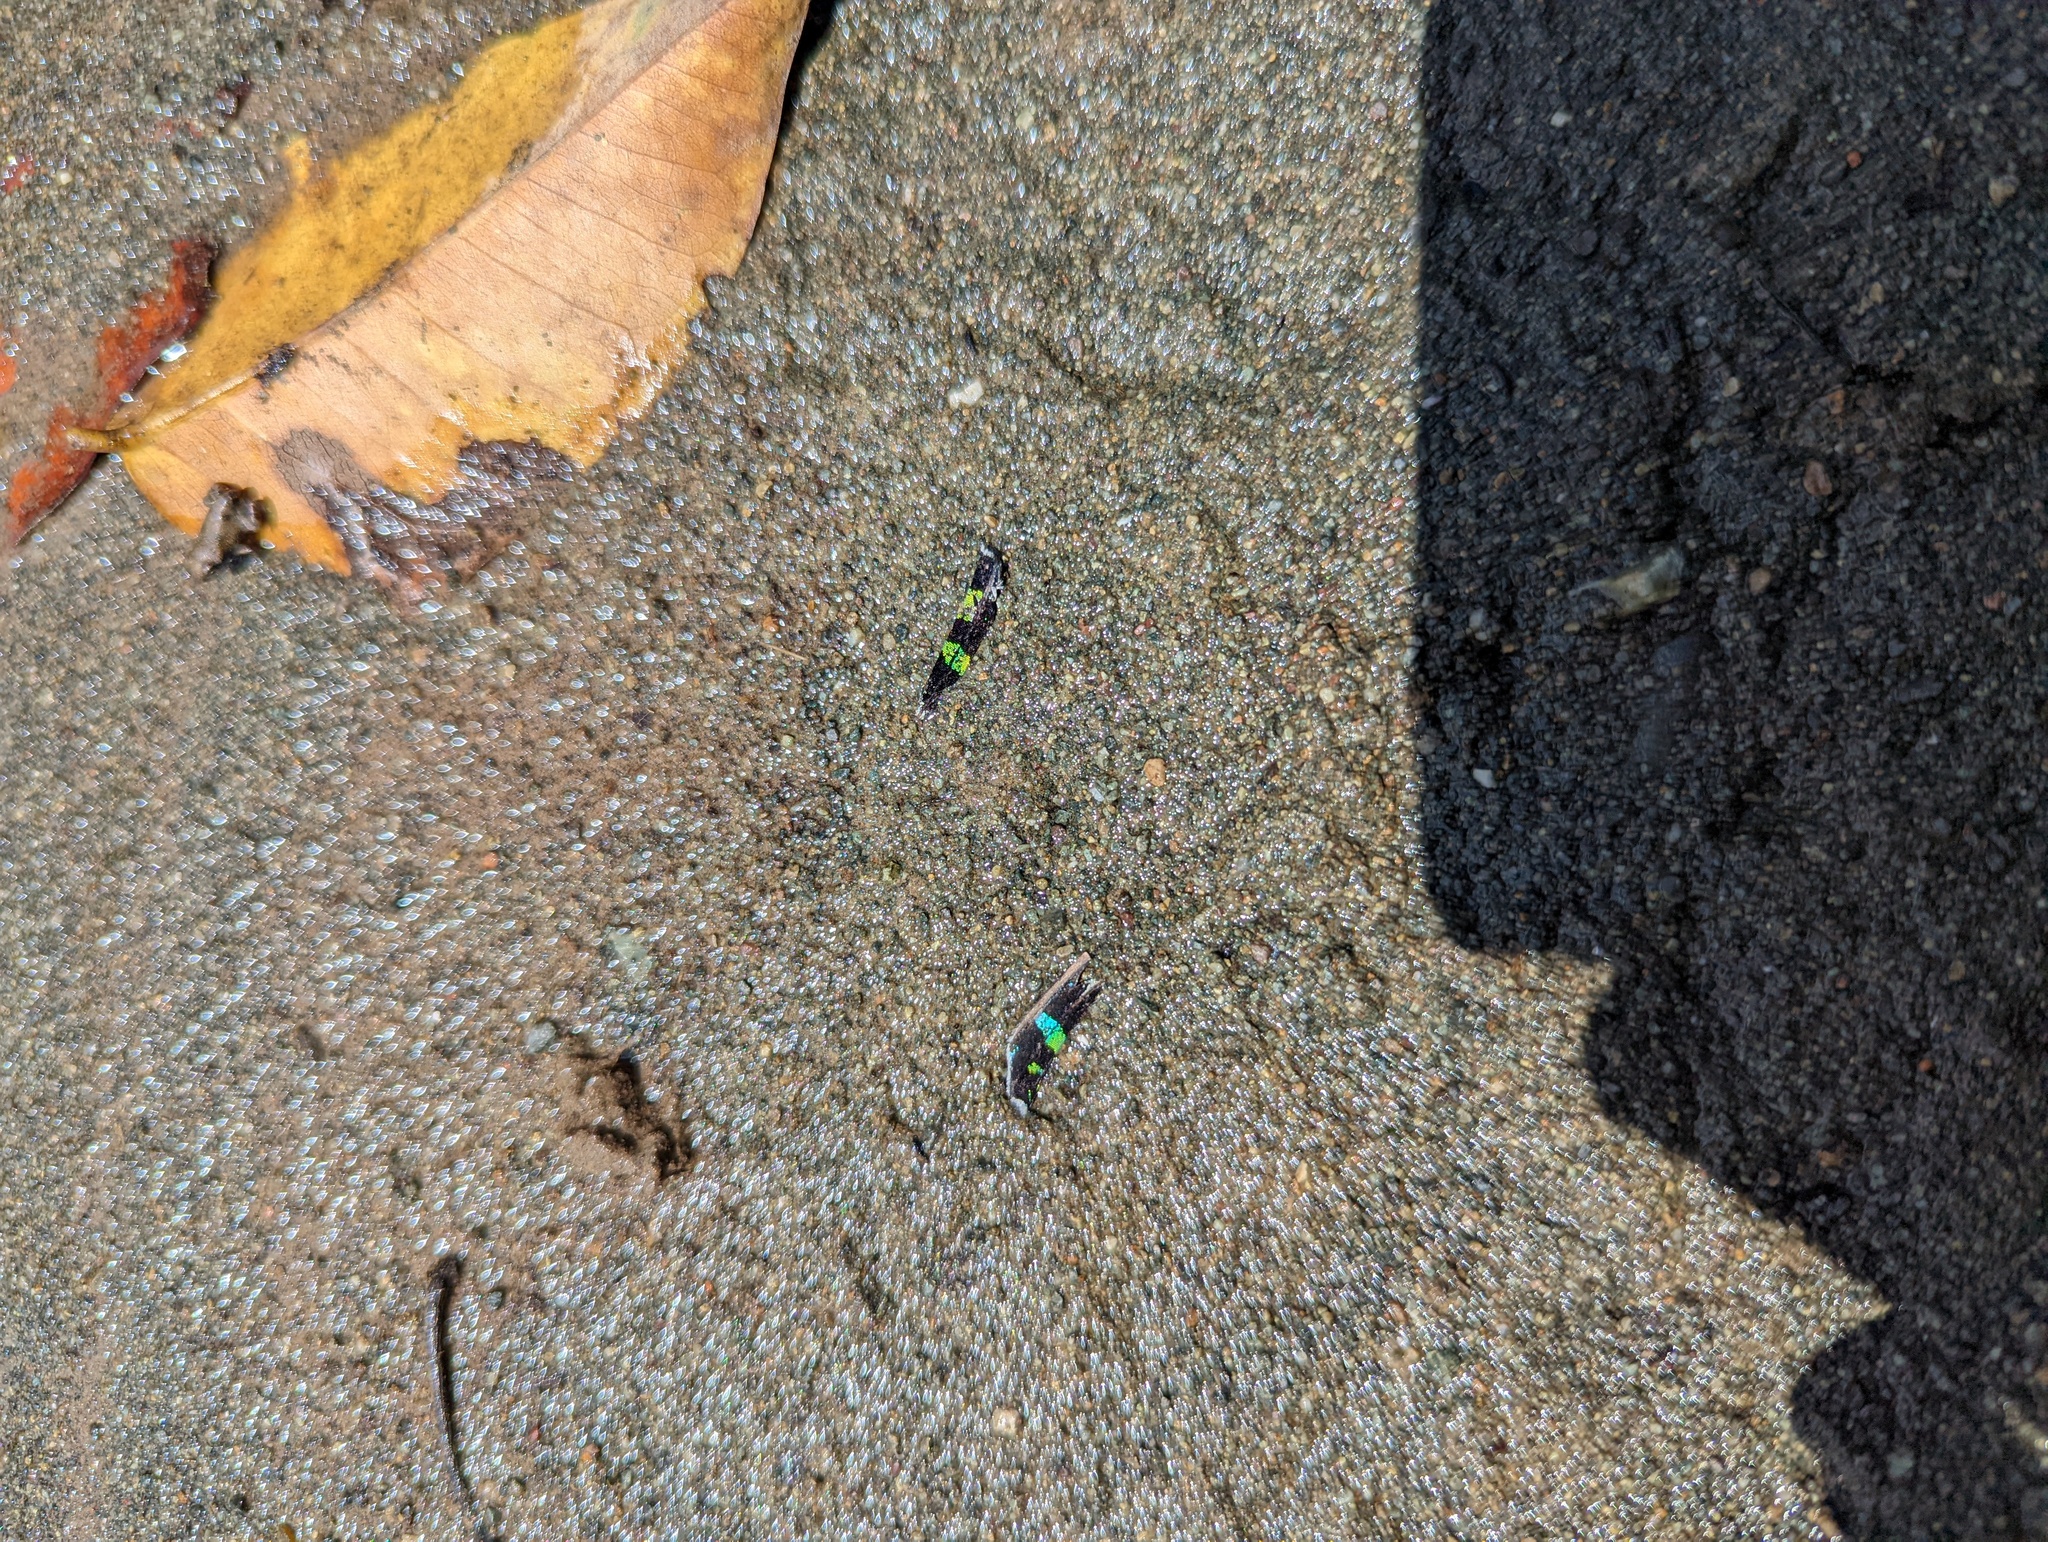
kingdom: Animalia
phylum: Arthropoda
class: Insecta
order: Lepidoptera
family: Uraniidae
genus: Urania
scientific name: Urania fulgens
